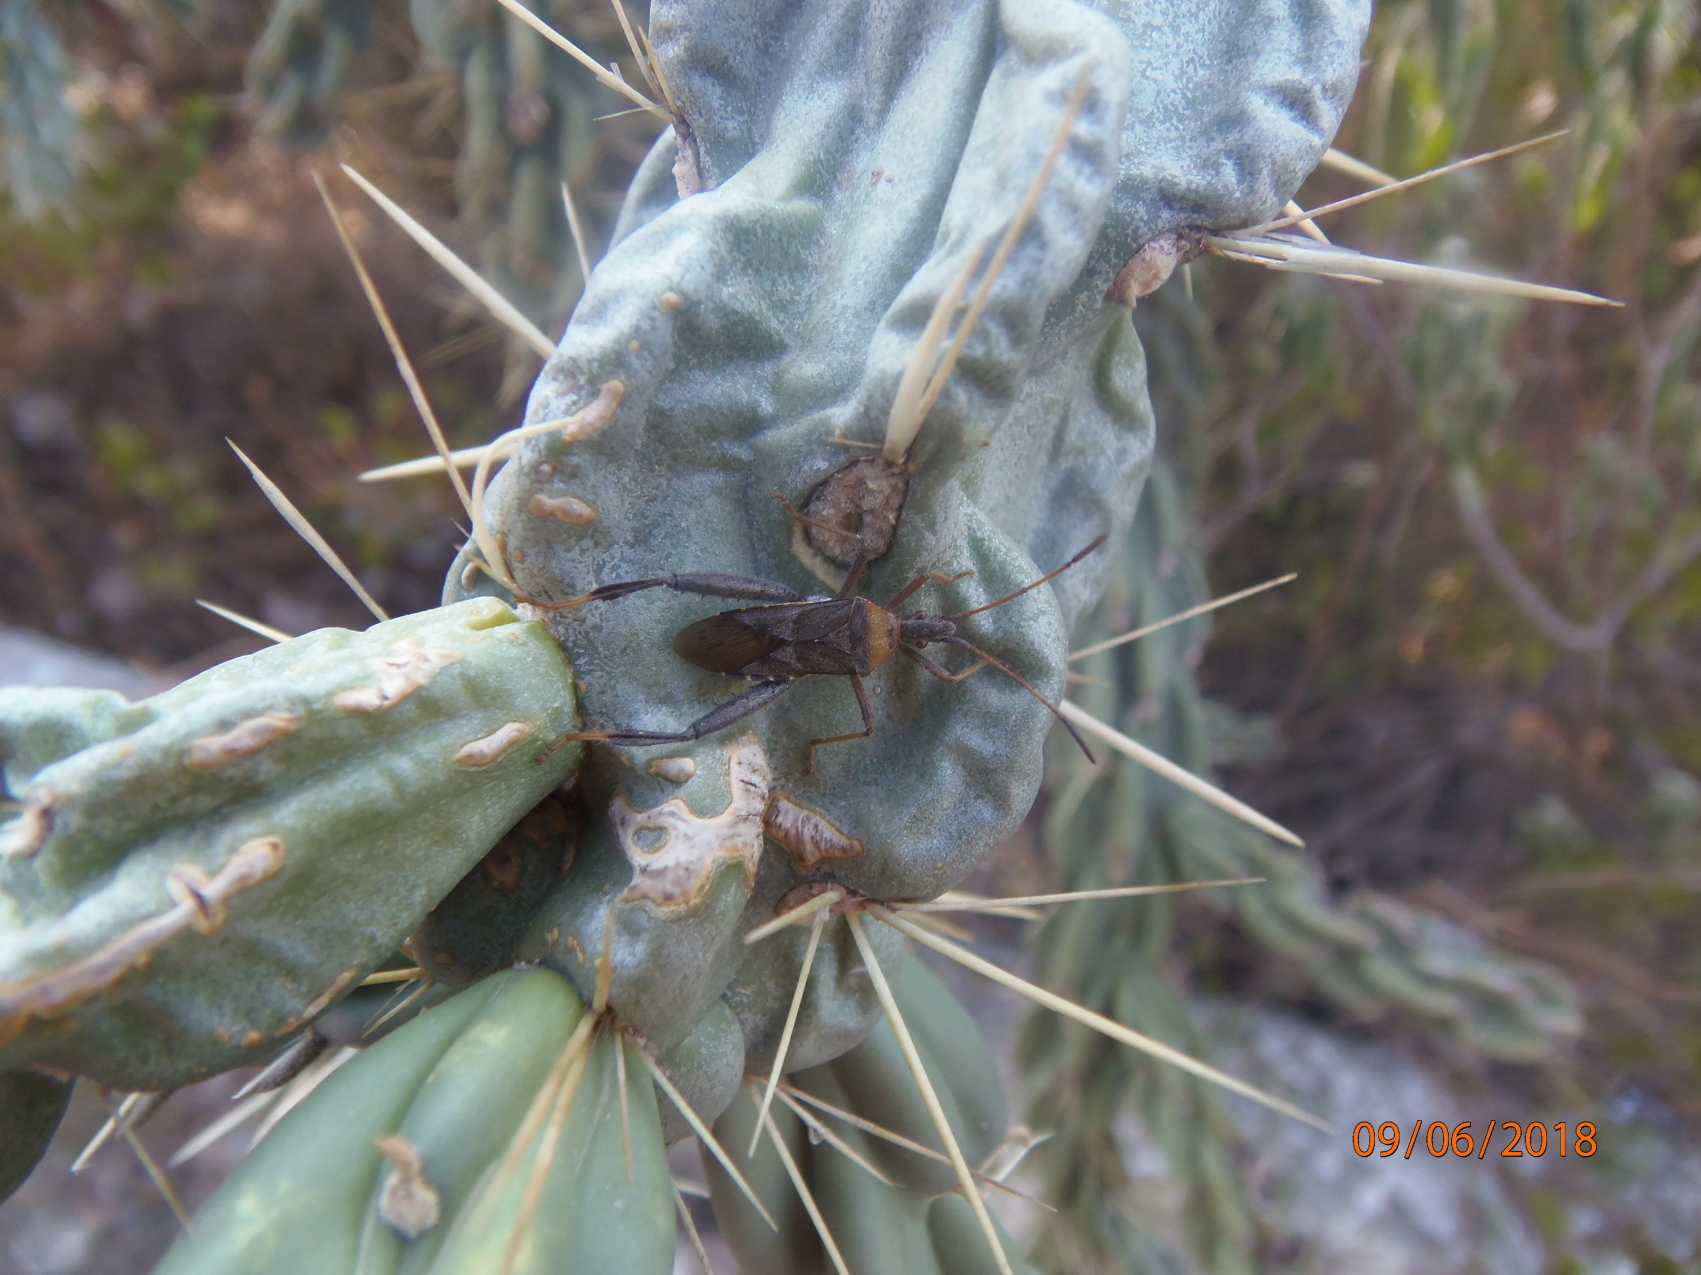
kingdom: Animalia
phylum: Arthropoda
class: Insecta
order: Hemiptera
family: Coreidae
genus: Narnia
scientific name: Narnia inornata
